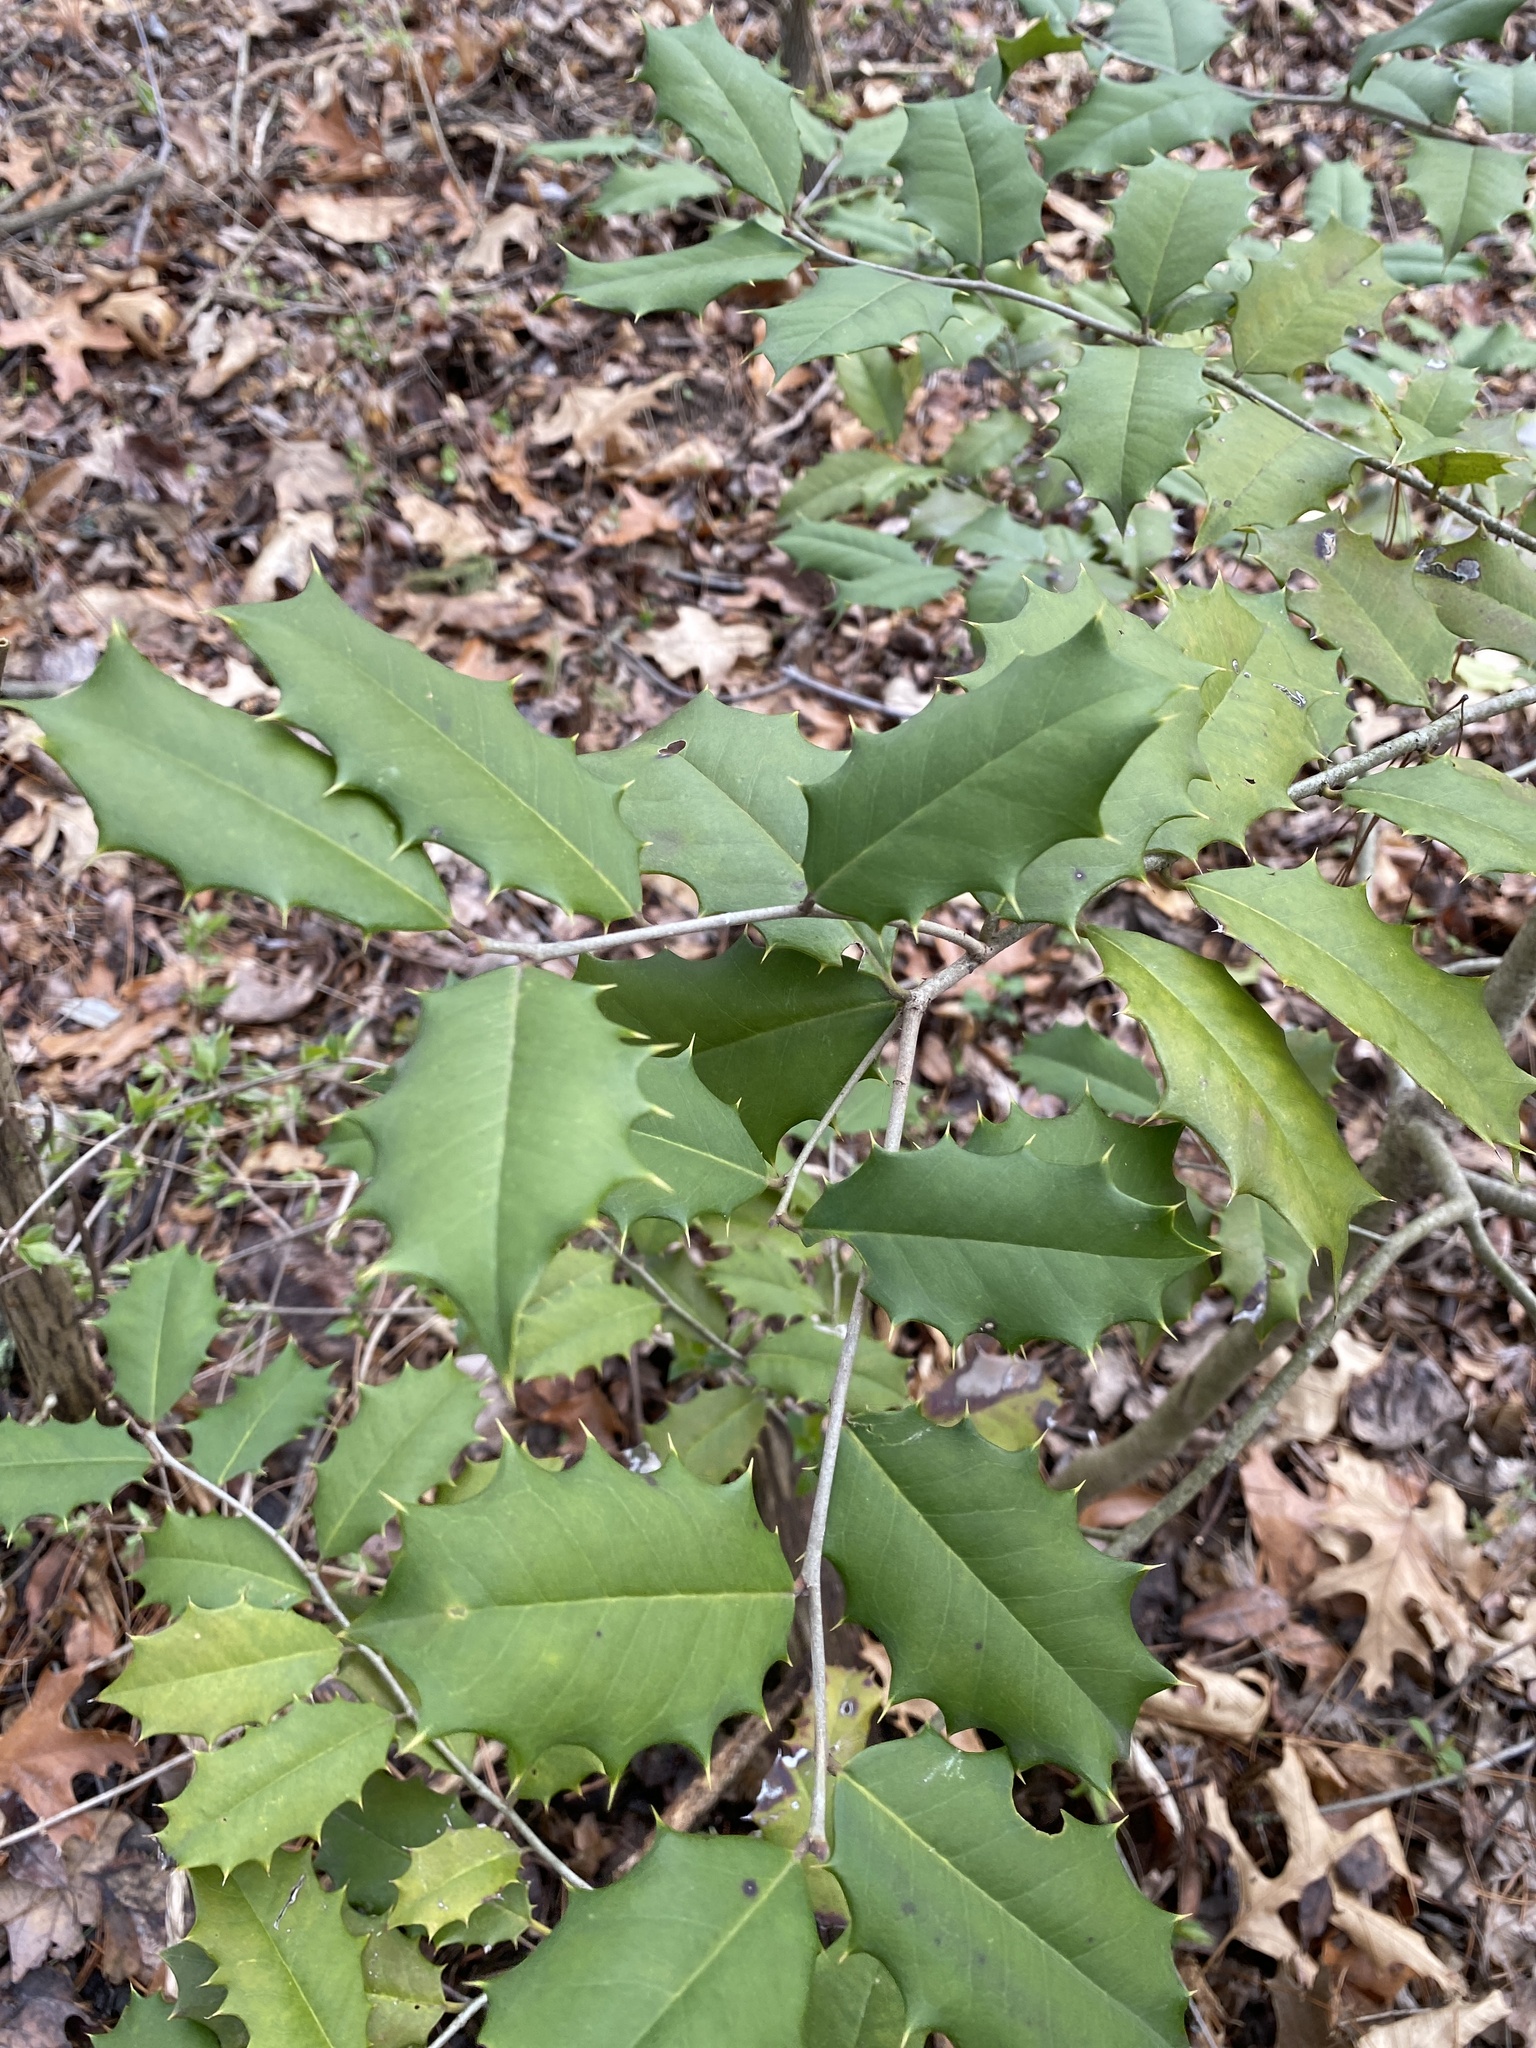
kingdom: Plantae
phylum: Tracheophyta
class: Magnoliopsida
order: Aquifoliales
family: Aquifoliaceae
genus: Ilex
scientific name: Ilex opaca
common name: American holly
